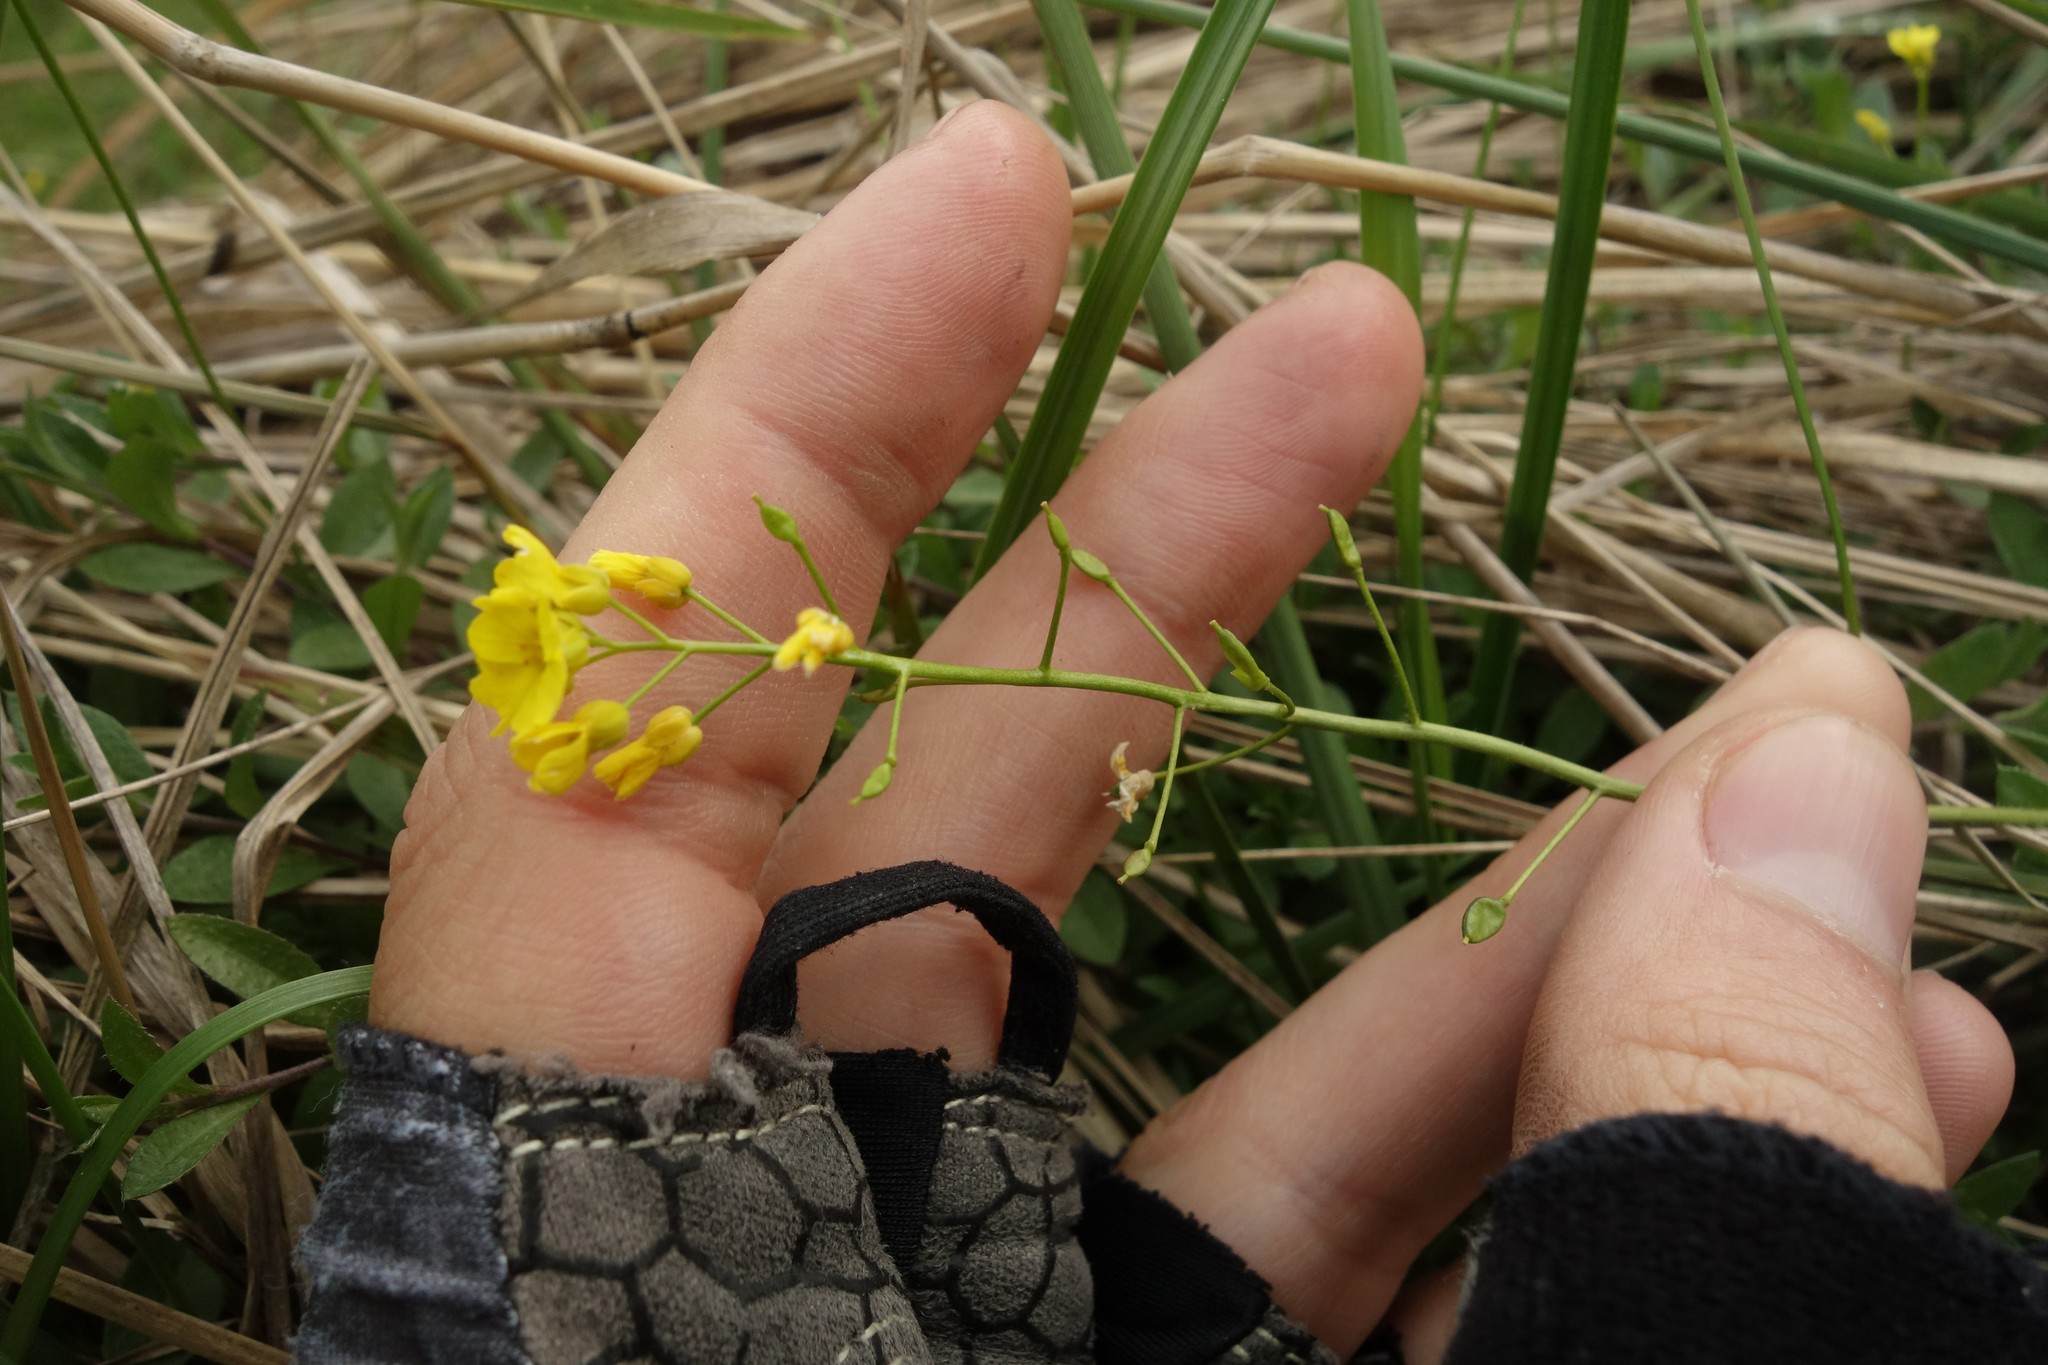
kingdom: Plantae
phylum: Tracheophyta
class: Magnoliopsida
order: Brassicales
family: Brassicaceae
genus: Draba
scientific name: Draba sibirica
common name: Siberian draba
